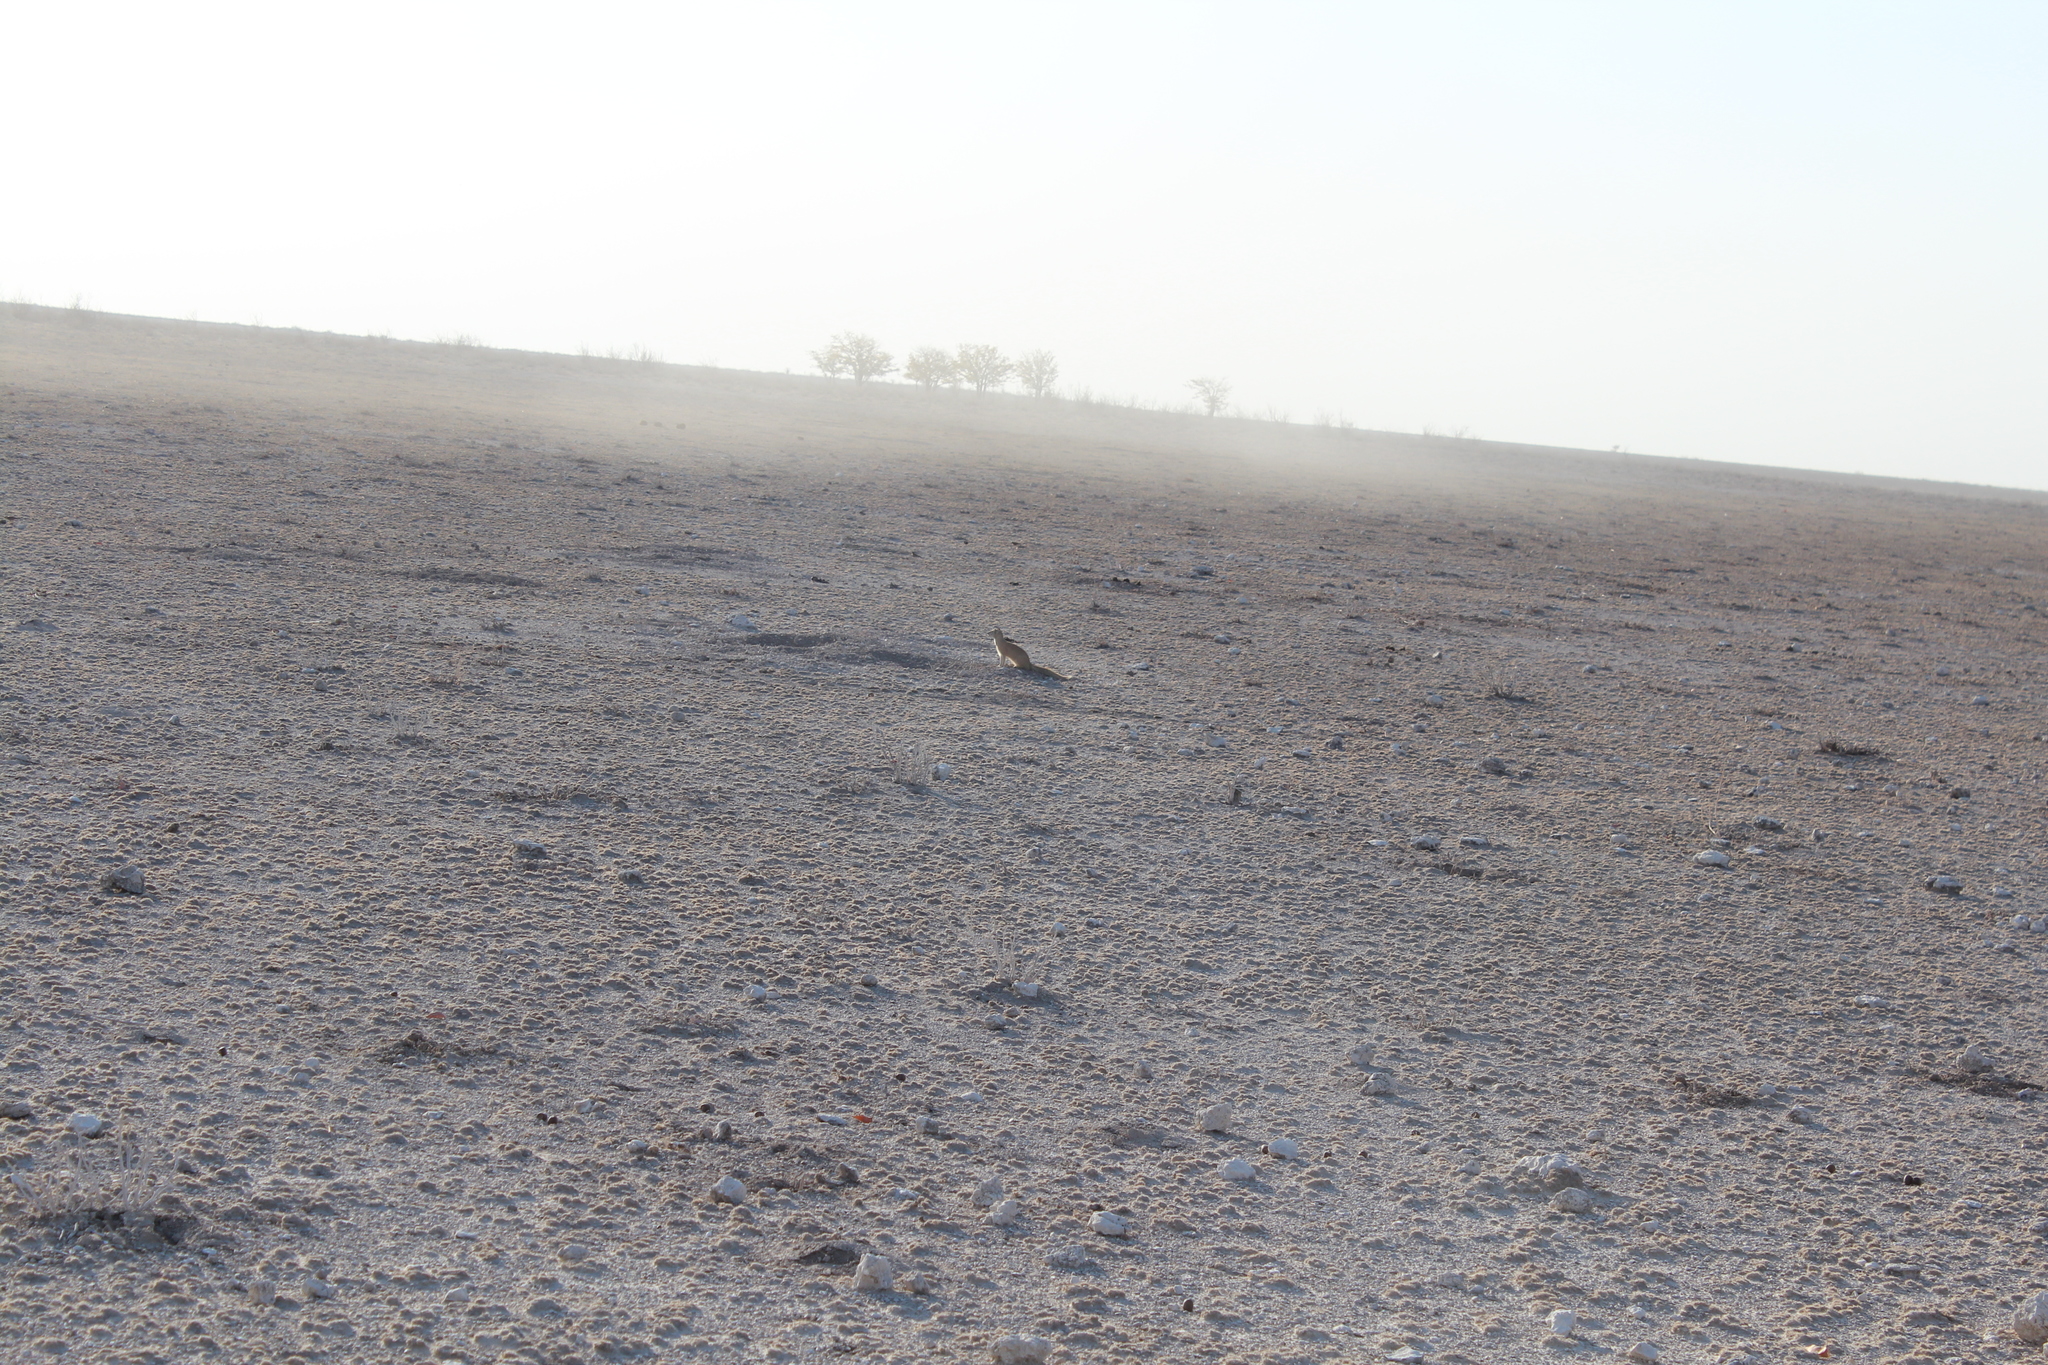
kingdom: Animalia
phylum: Chordata
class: Mammalia
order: Carnivora
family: Herpestidae
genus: Cynictis
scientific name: Cynictis penicillata
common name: Yellow mongoose
